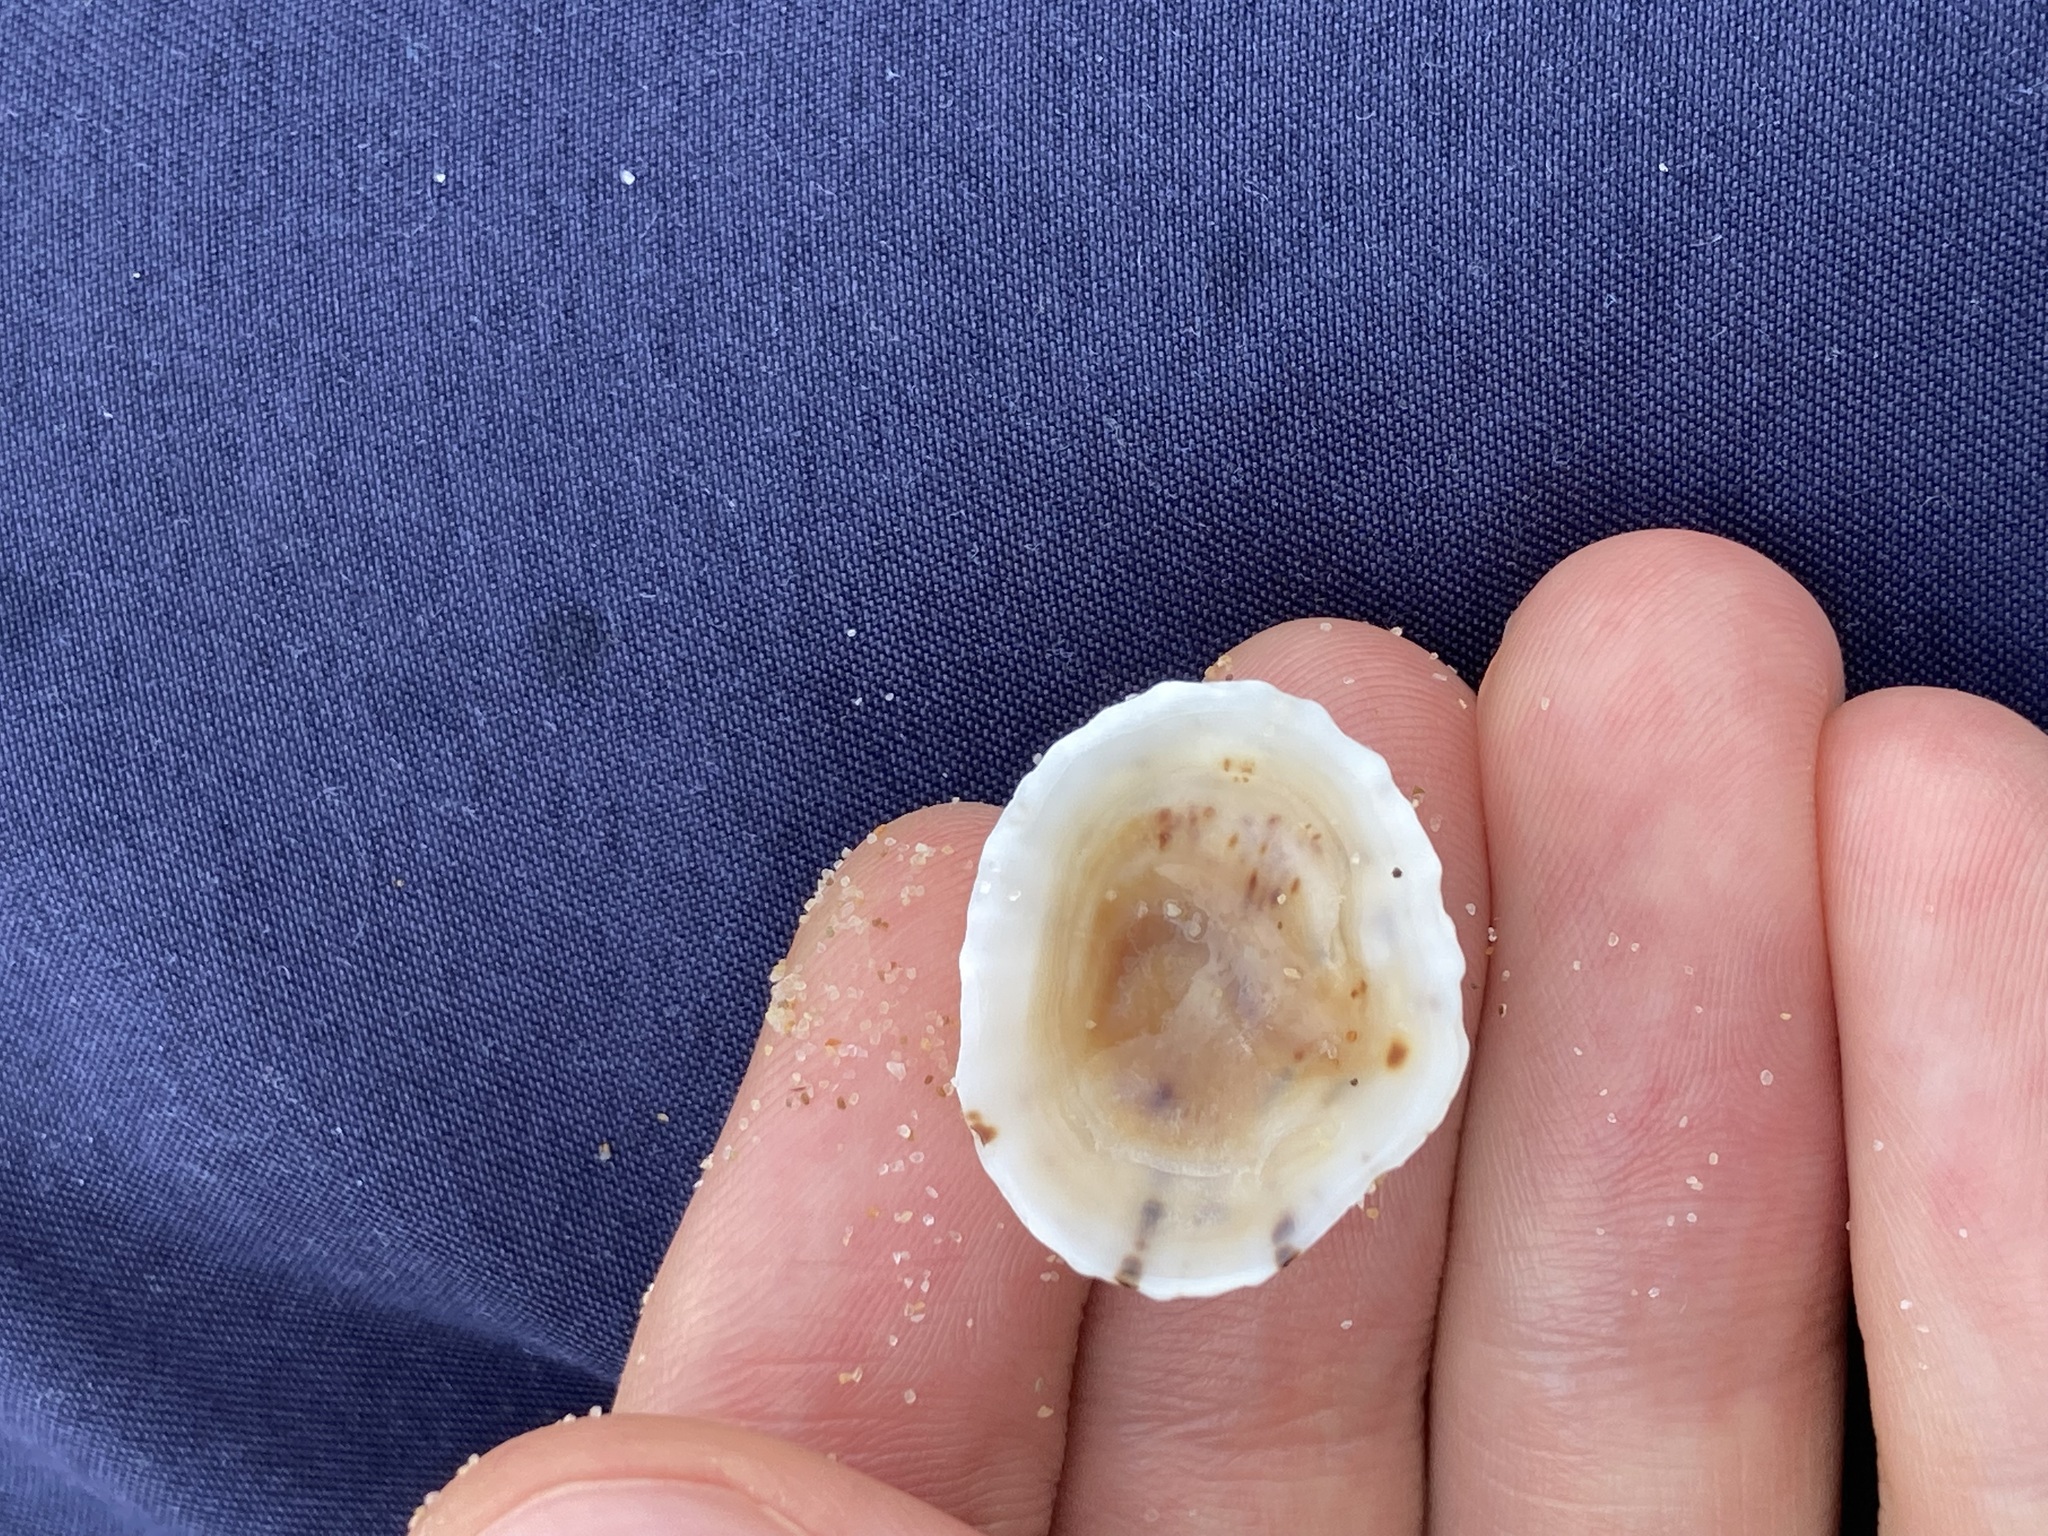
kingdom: Animalia
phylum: Mollusca
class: Gastropoda
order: Siphonariida
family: Siphonariidae
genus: Siphonaria
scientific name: Siphonaria zelandica
